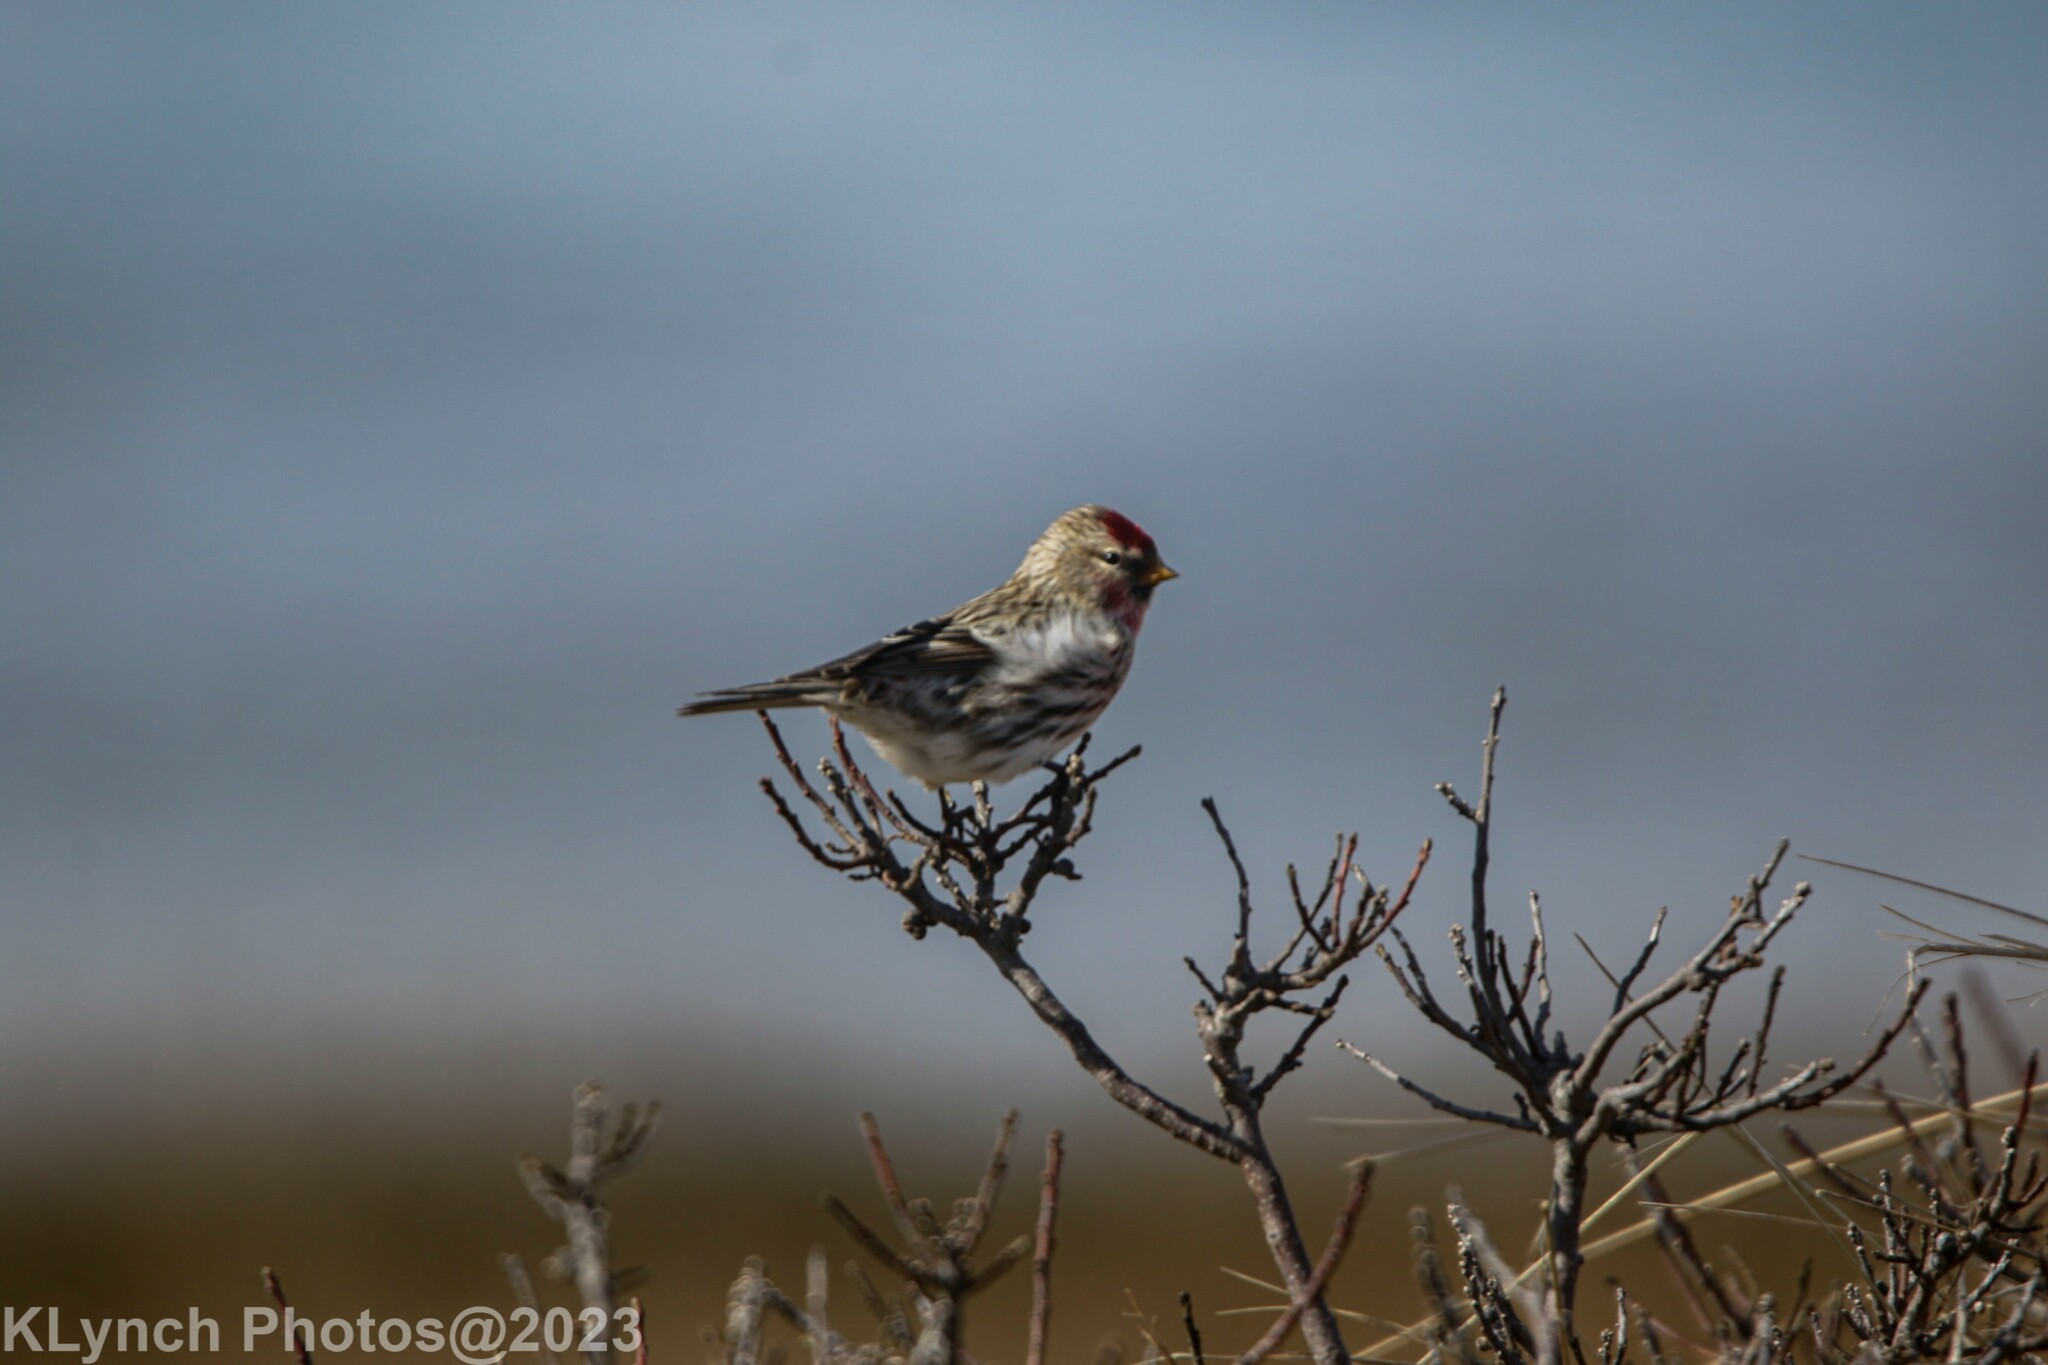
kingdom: Animalia
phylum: Chordata
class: Aves
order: Passeriformes
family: Fringillidae
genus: Acanthis
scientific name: Acanthis flammea
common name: Common redpoll
